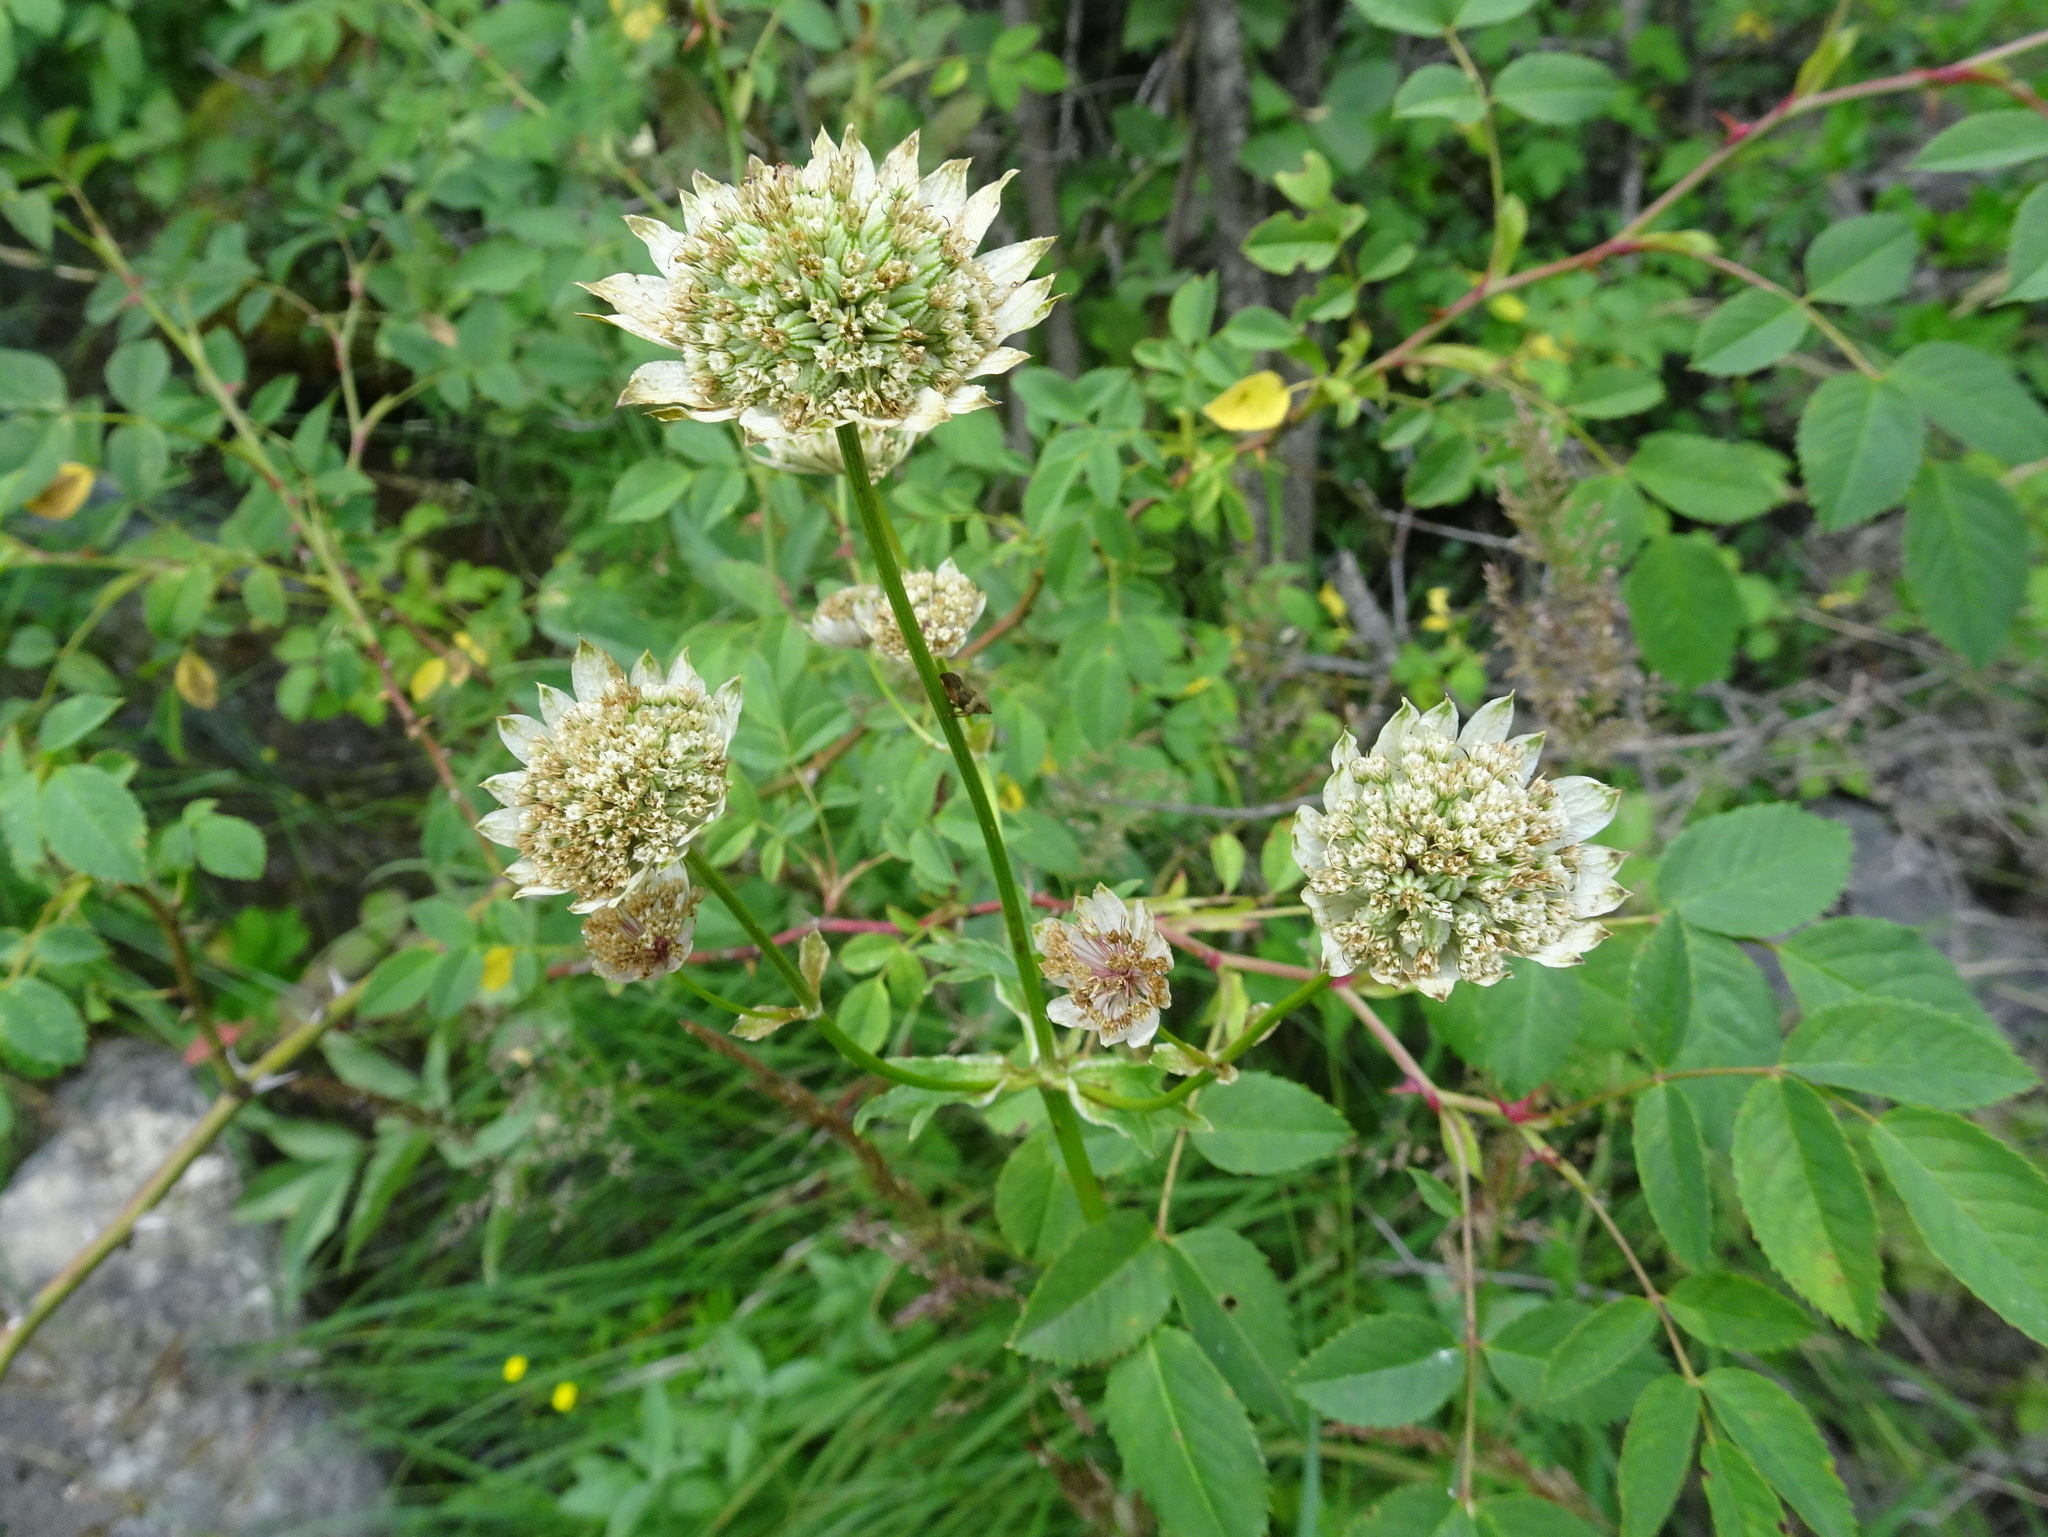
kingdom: Plantae
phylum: Tracheophyta
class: Magnoliopsida
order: Apiales
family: Apiaceae
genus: Astrantia
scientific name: Astrantia major
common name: Greater masterwort
